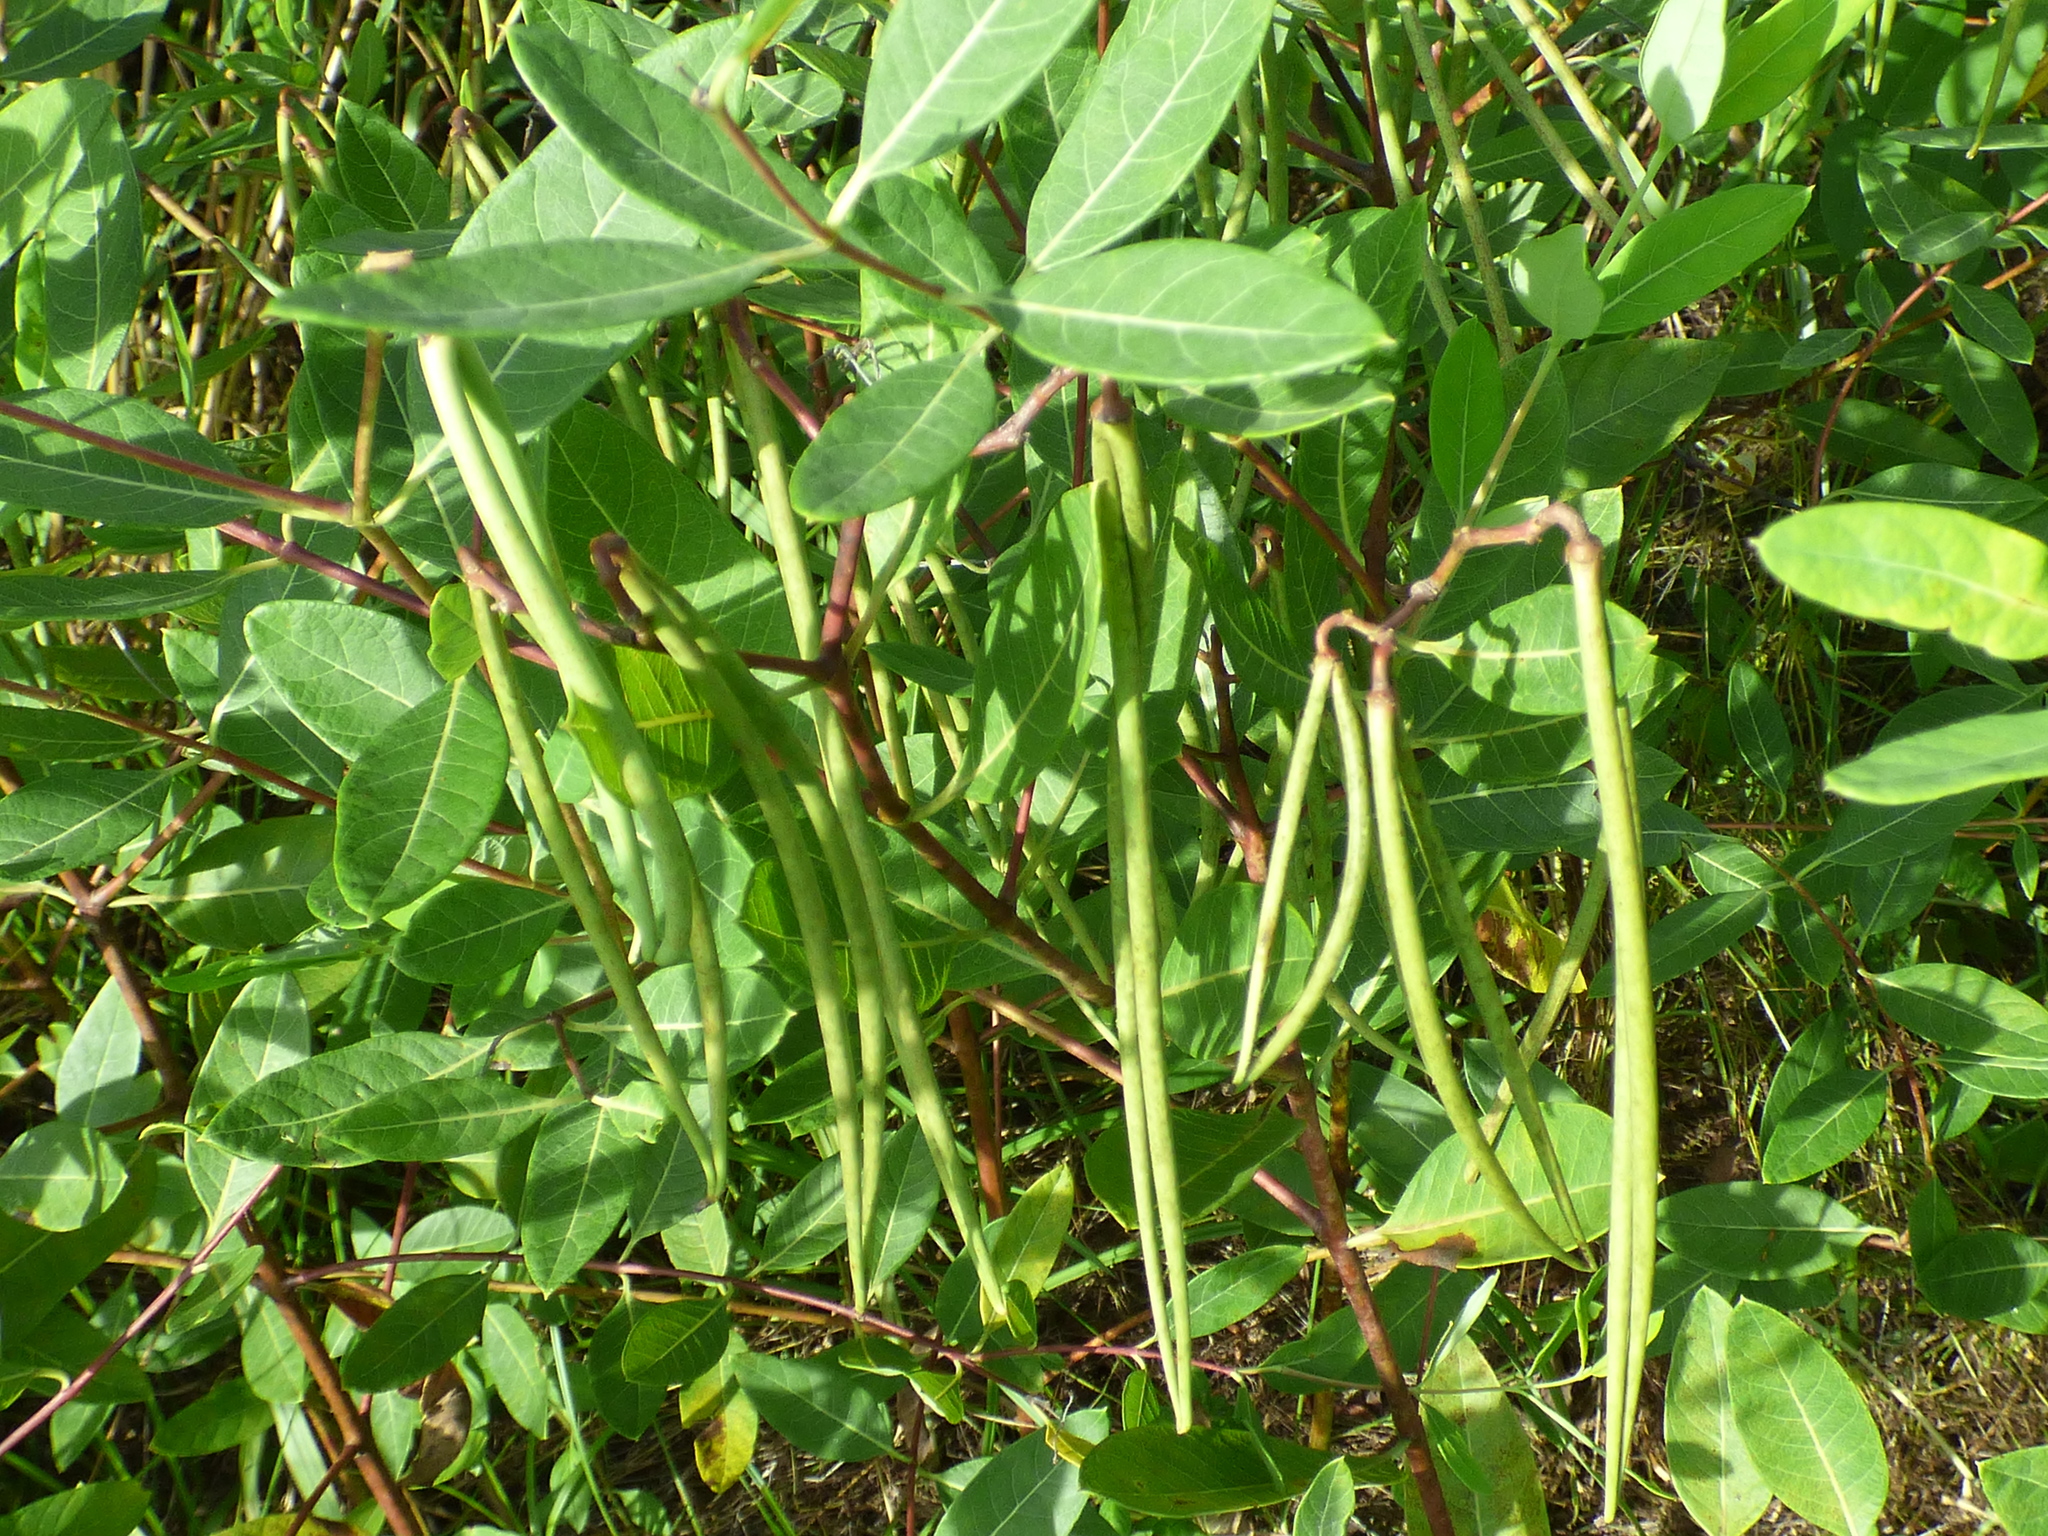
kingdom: Plantae
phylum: Tracheophyta
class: Magnoliopsida
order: Gentianales
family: Apocynaceae
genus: Apocynum
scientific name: Apocynum cannabinum
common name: Hemp dogbane
